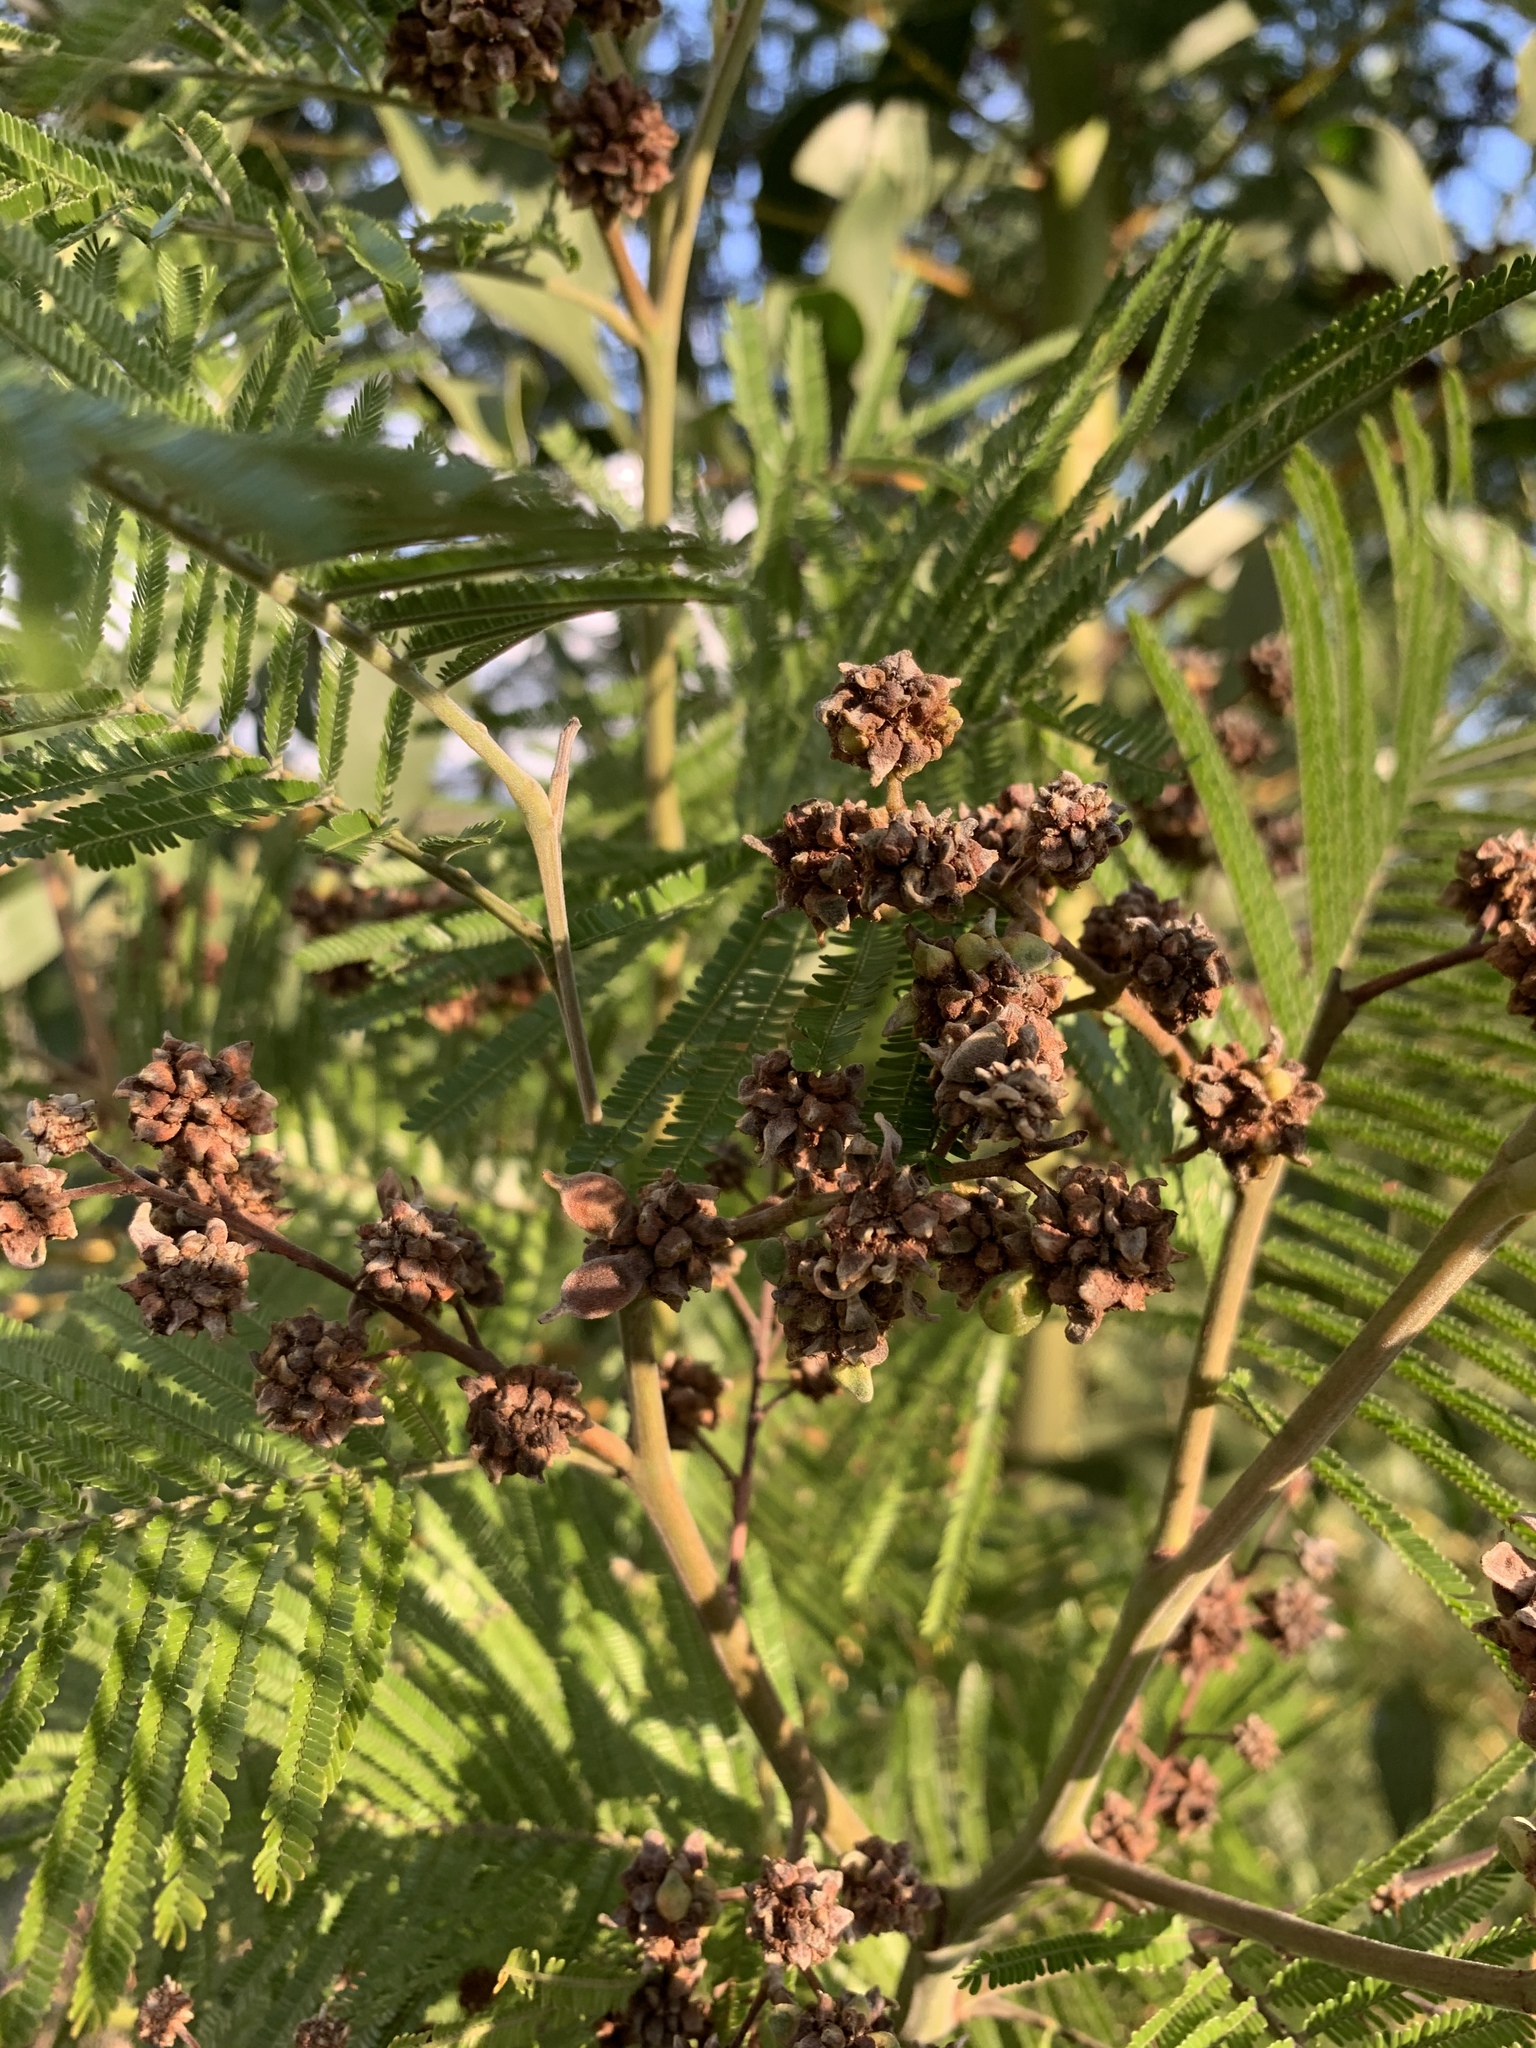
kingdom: Animalia
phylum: Arthropoda
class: Insecta
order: Diptera
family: Cecidomyiidae
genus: Dasineura
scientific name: Dasineura rubiformis
